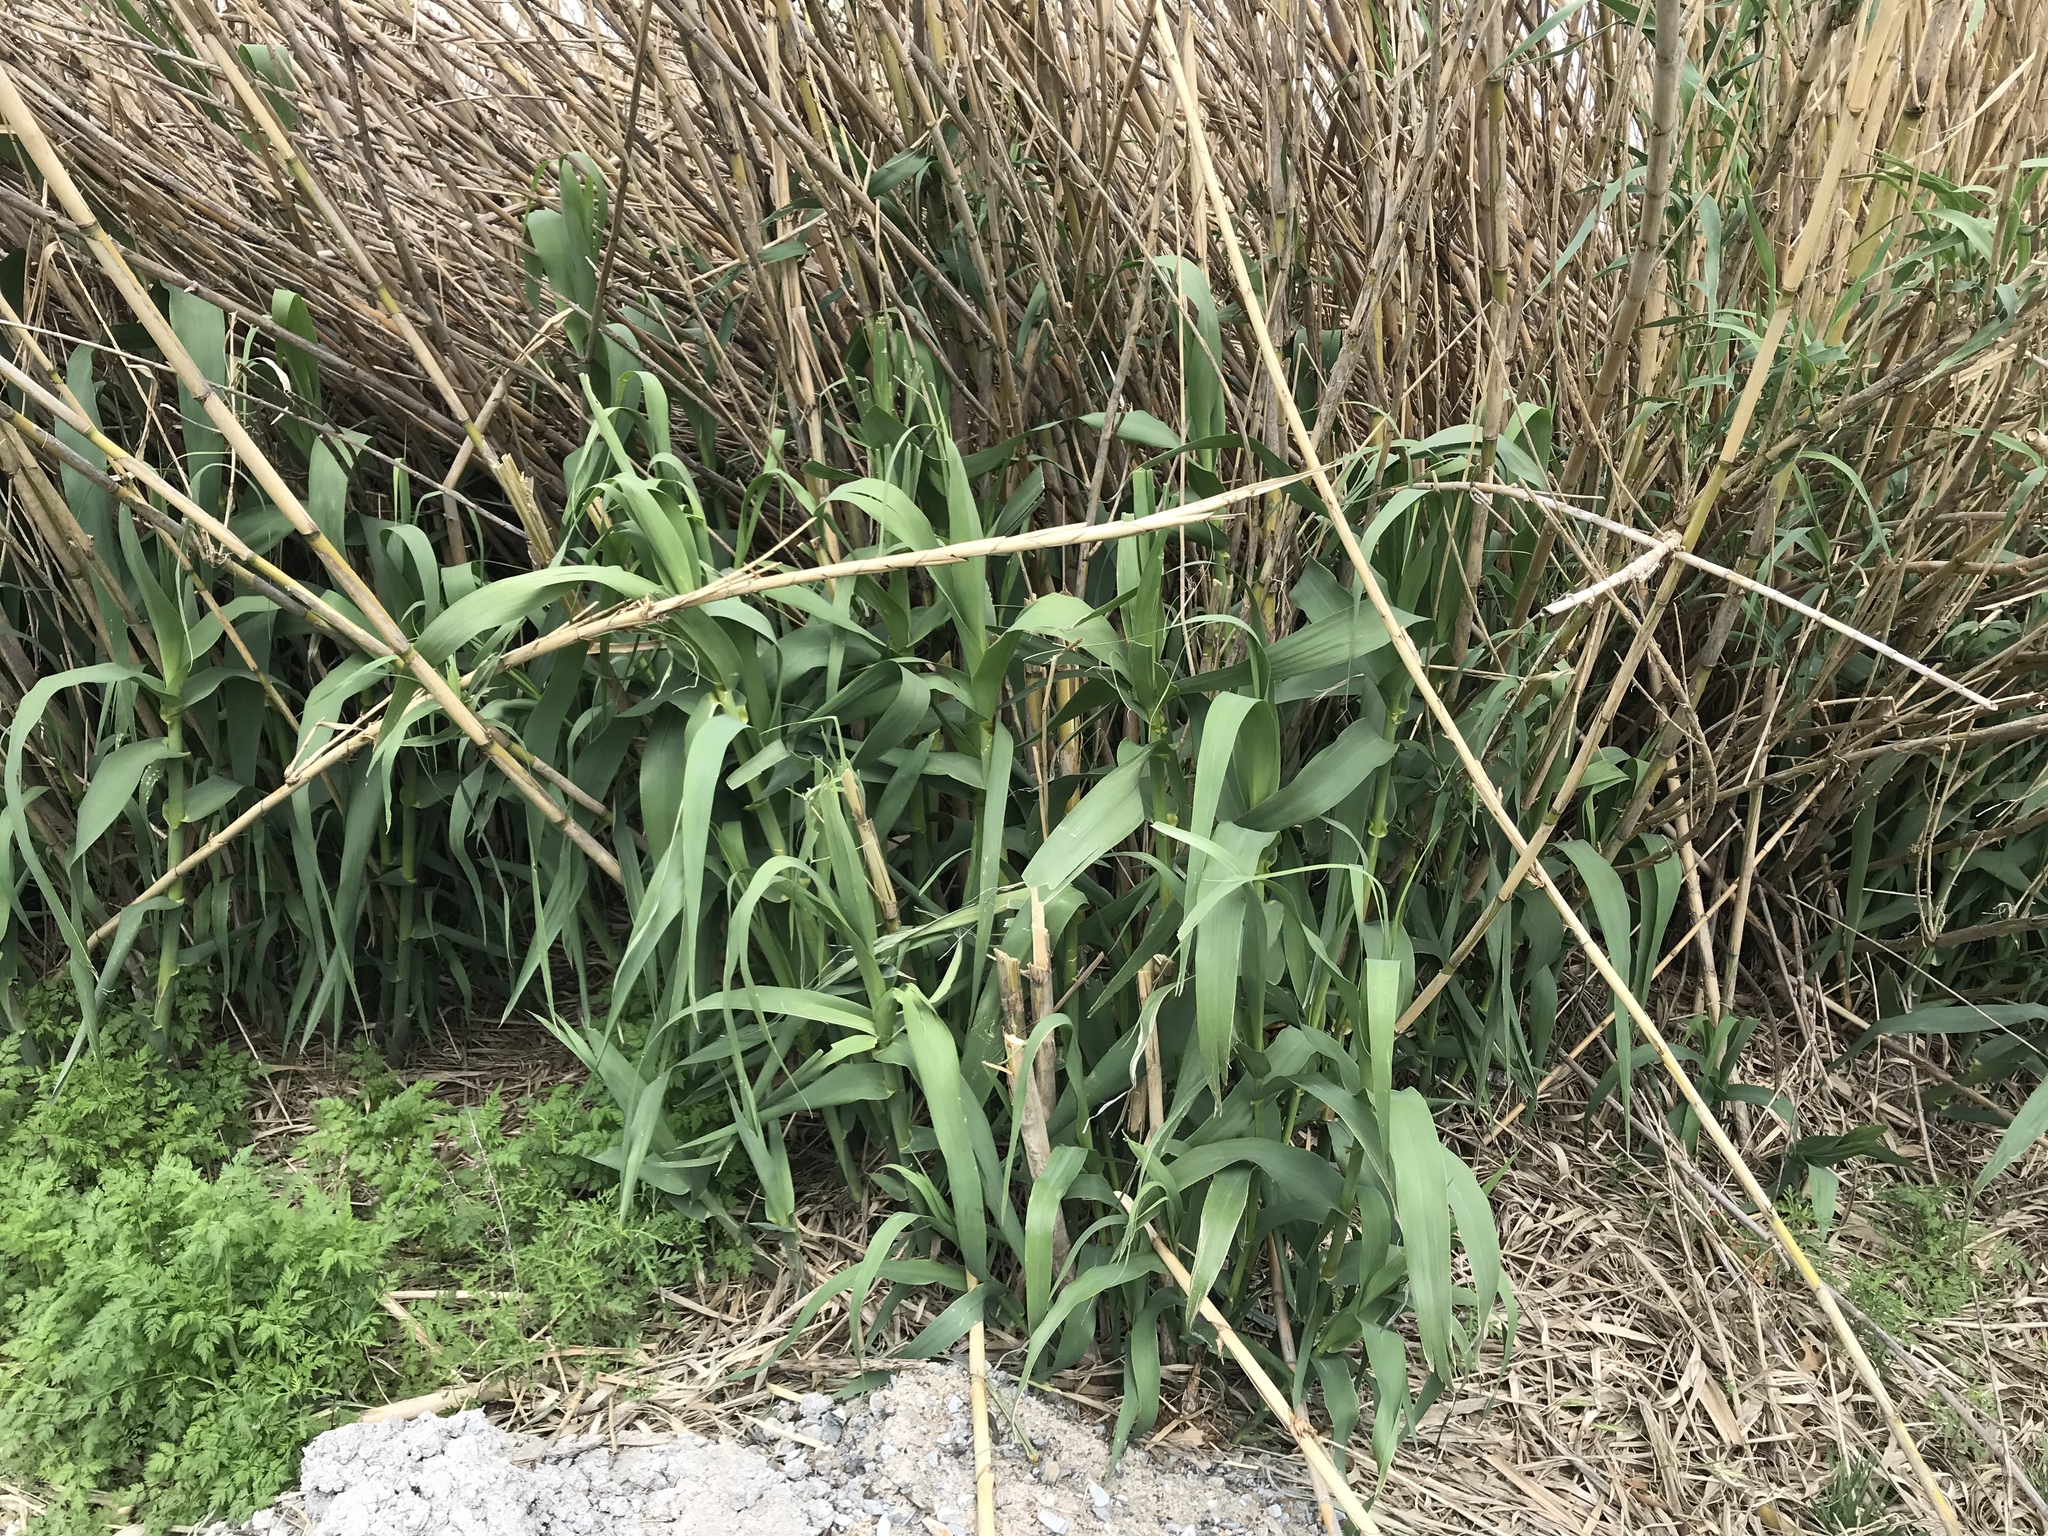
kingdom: Plantae
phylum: Tracheophyta
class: Liliopsida
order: Poales
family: Poaceae
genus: Arundo
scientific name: Arundo donax
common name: Giant reed
